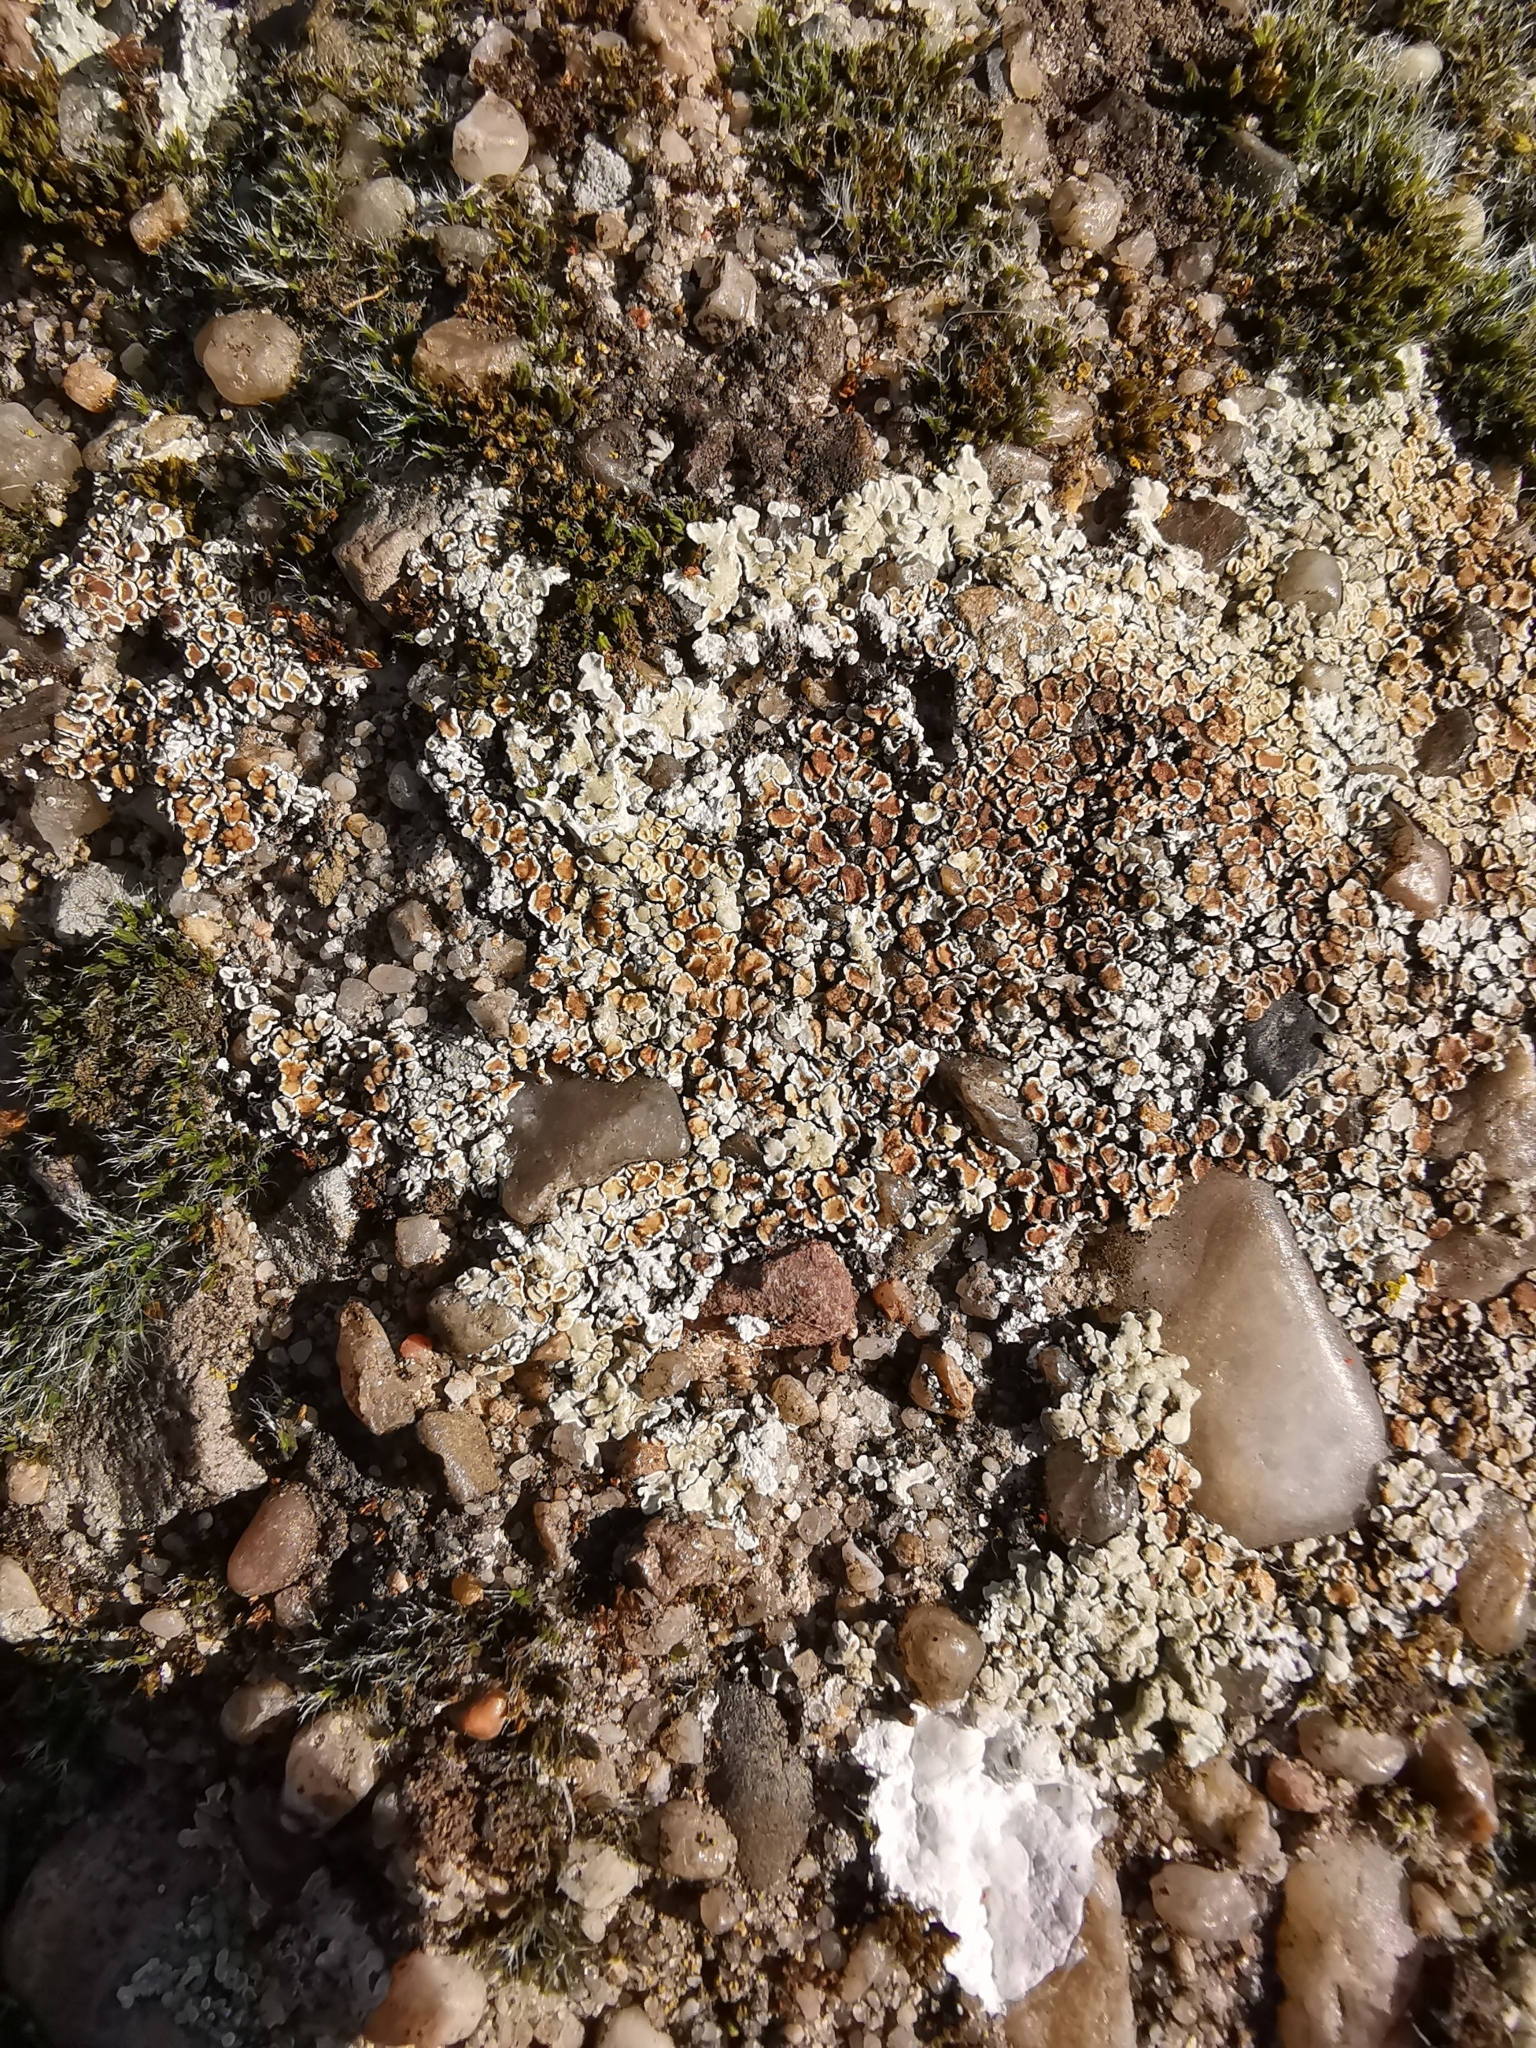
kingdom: Fungi
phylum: Ascomycota
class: Lecanoromycetes
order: Lecanorales
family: Lecanoraceae
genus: Protoparmeliopsis
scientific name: Protoparmeliopsis muralis
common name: Stonewall rim lichen
